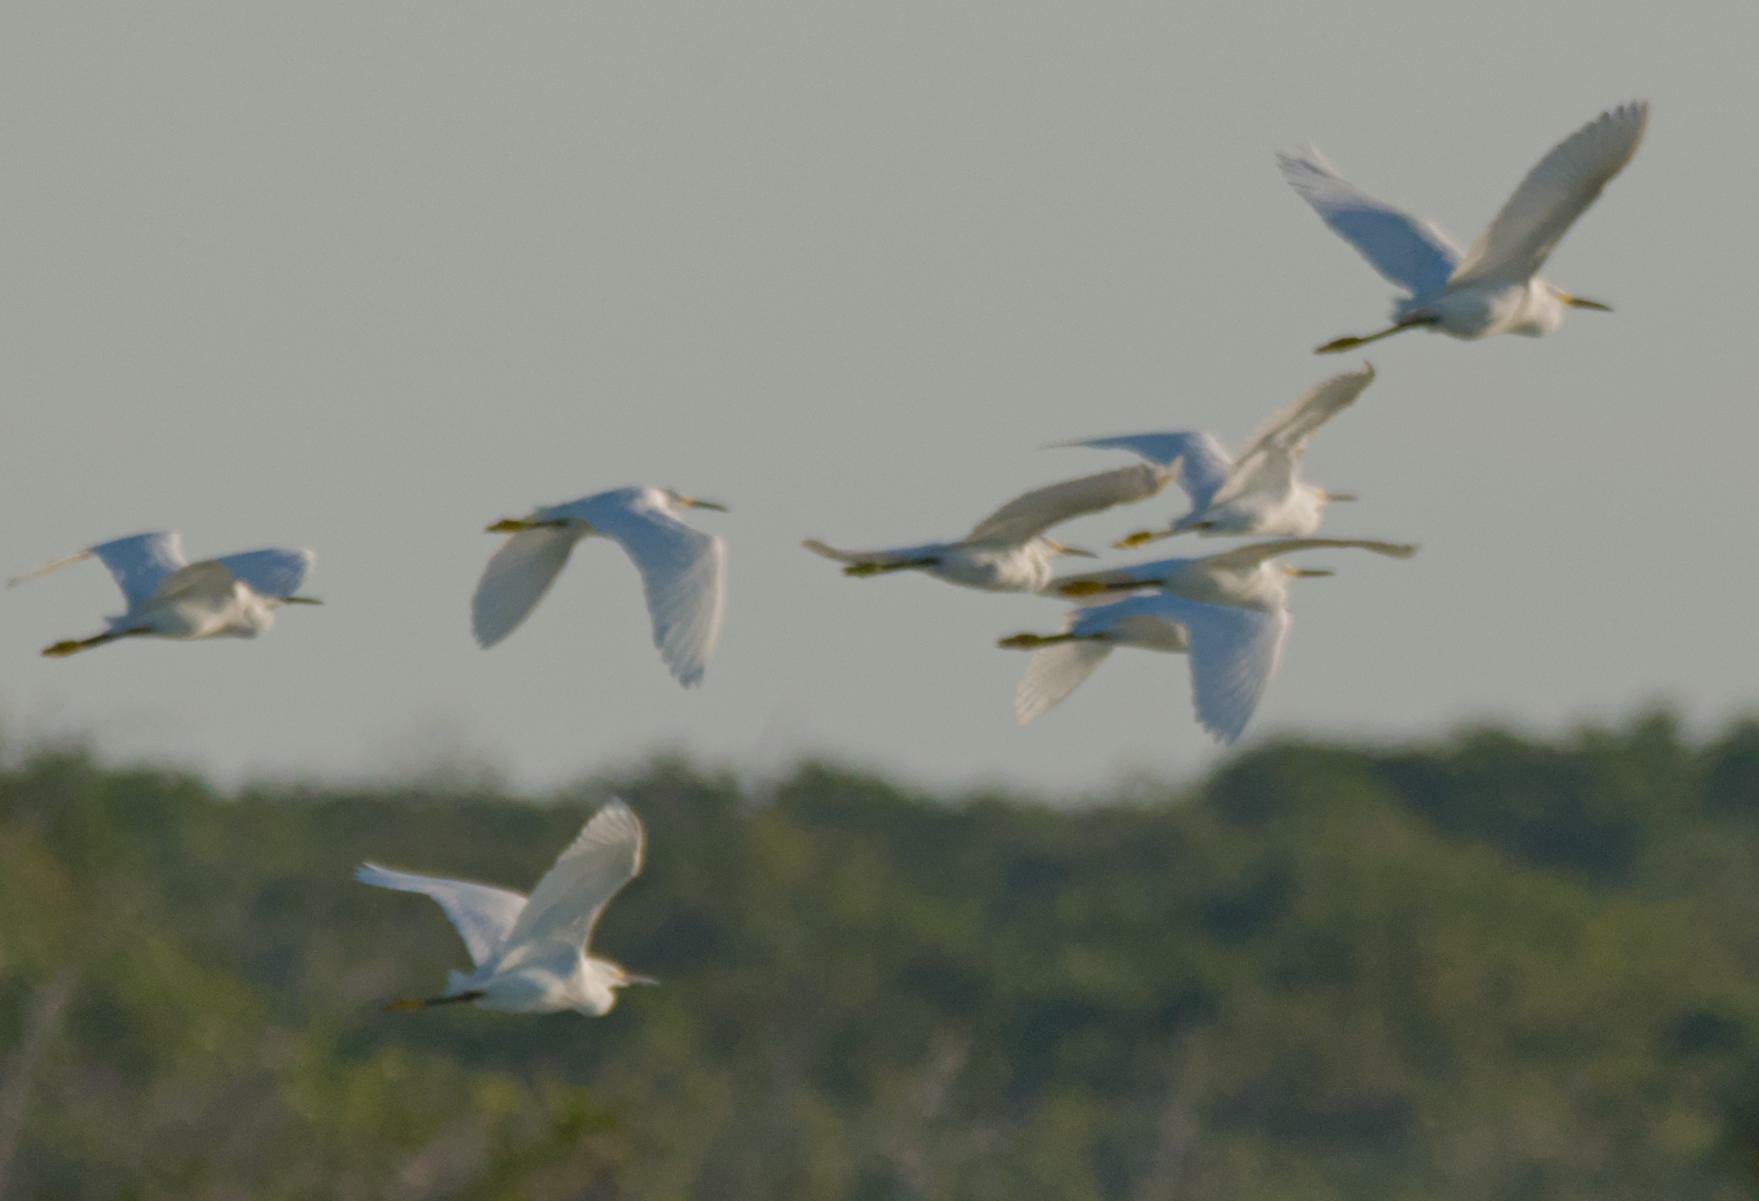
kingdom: Animalia
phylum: Chordata
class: Aves
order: Pelecaniformes
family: Ardeidae
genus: Egretta
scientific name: Egretta thula
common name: Snowy egret
